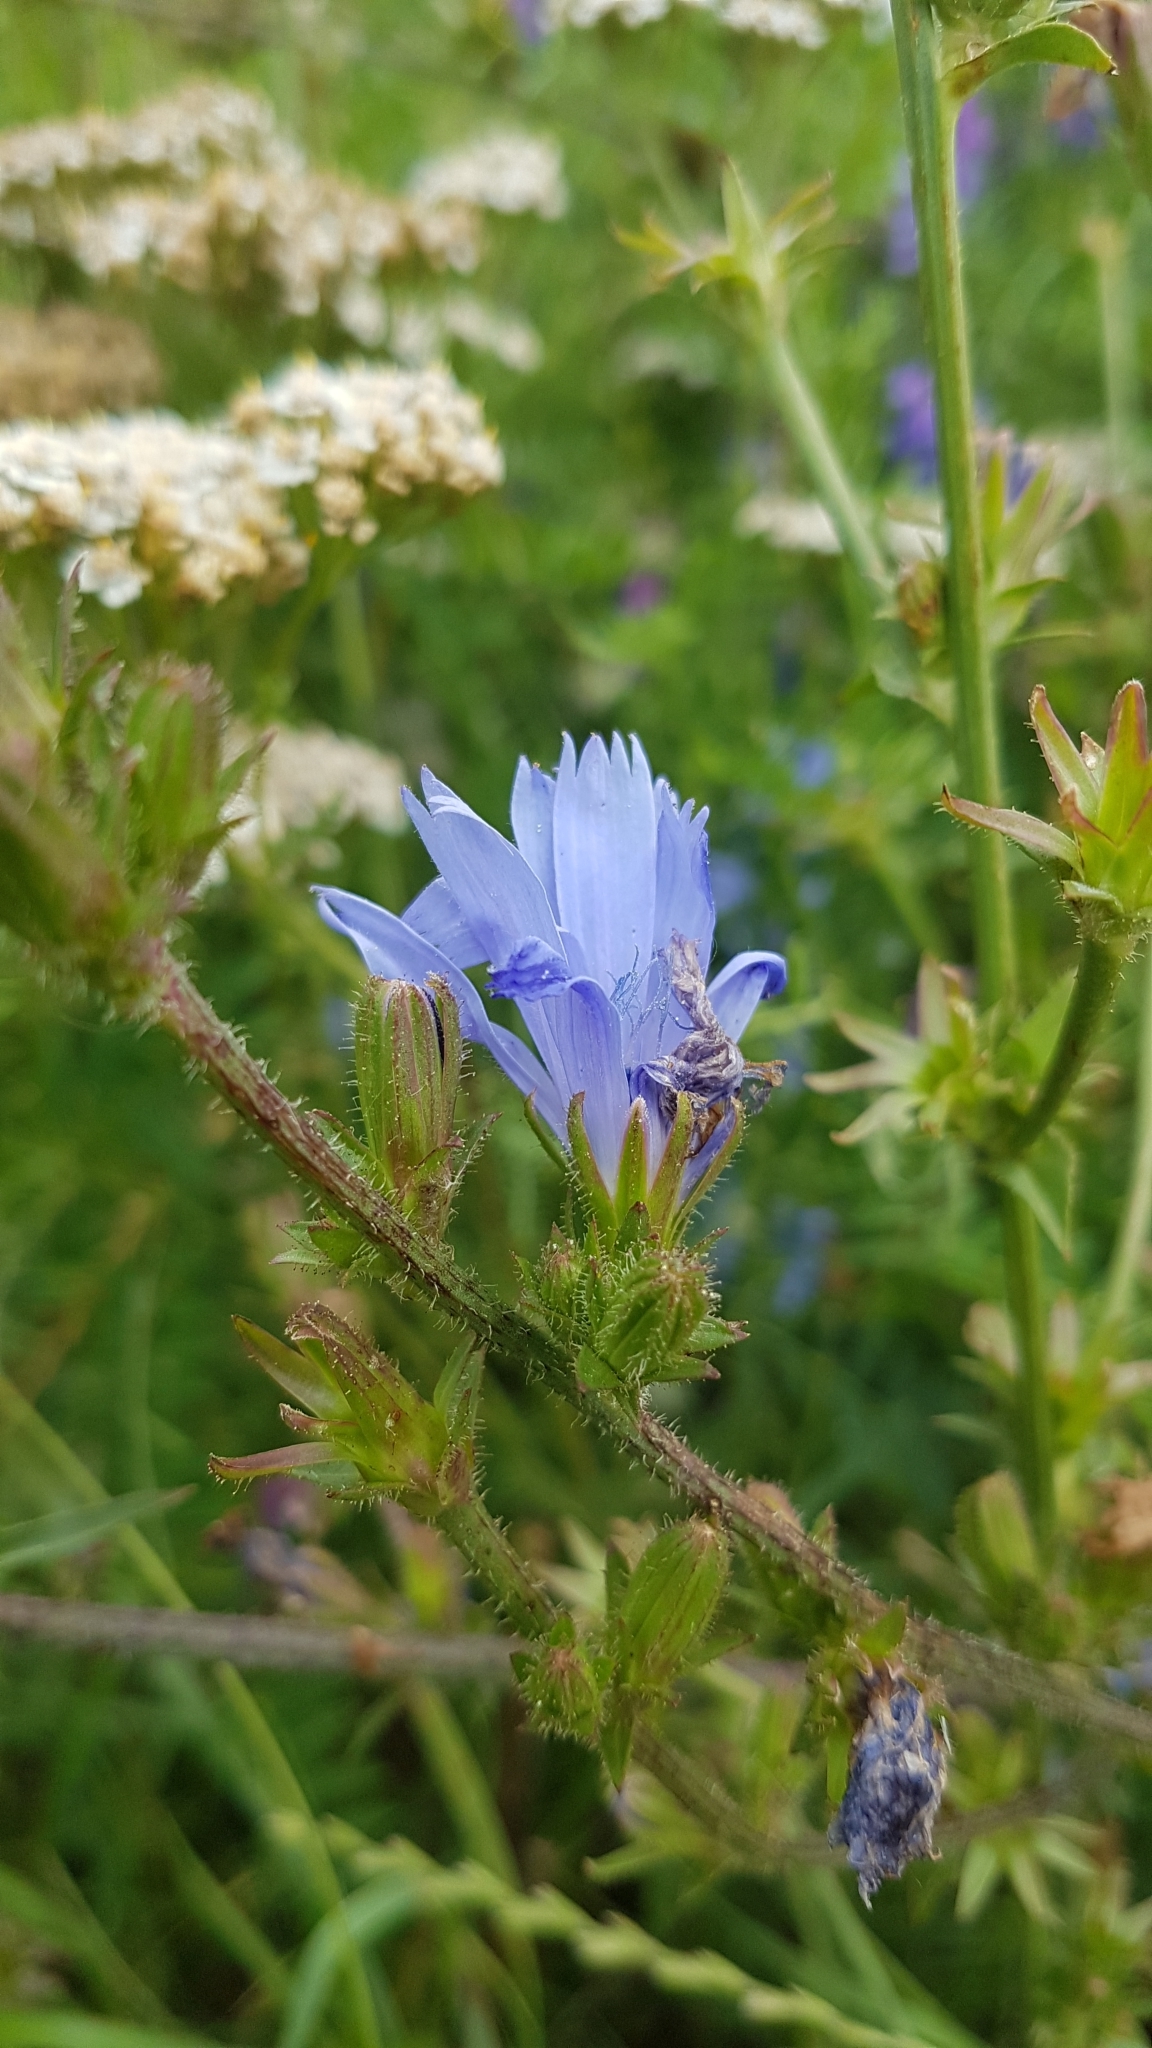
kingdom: Plantae
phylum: Tracheophyta
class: Magnoliopsida
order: Asterales
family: Asteraceae
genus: Cichorium
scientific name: Cichorium intybus
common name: Chicory
